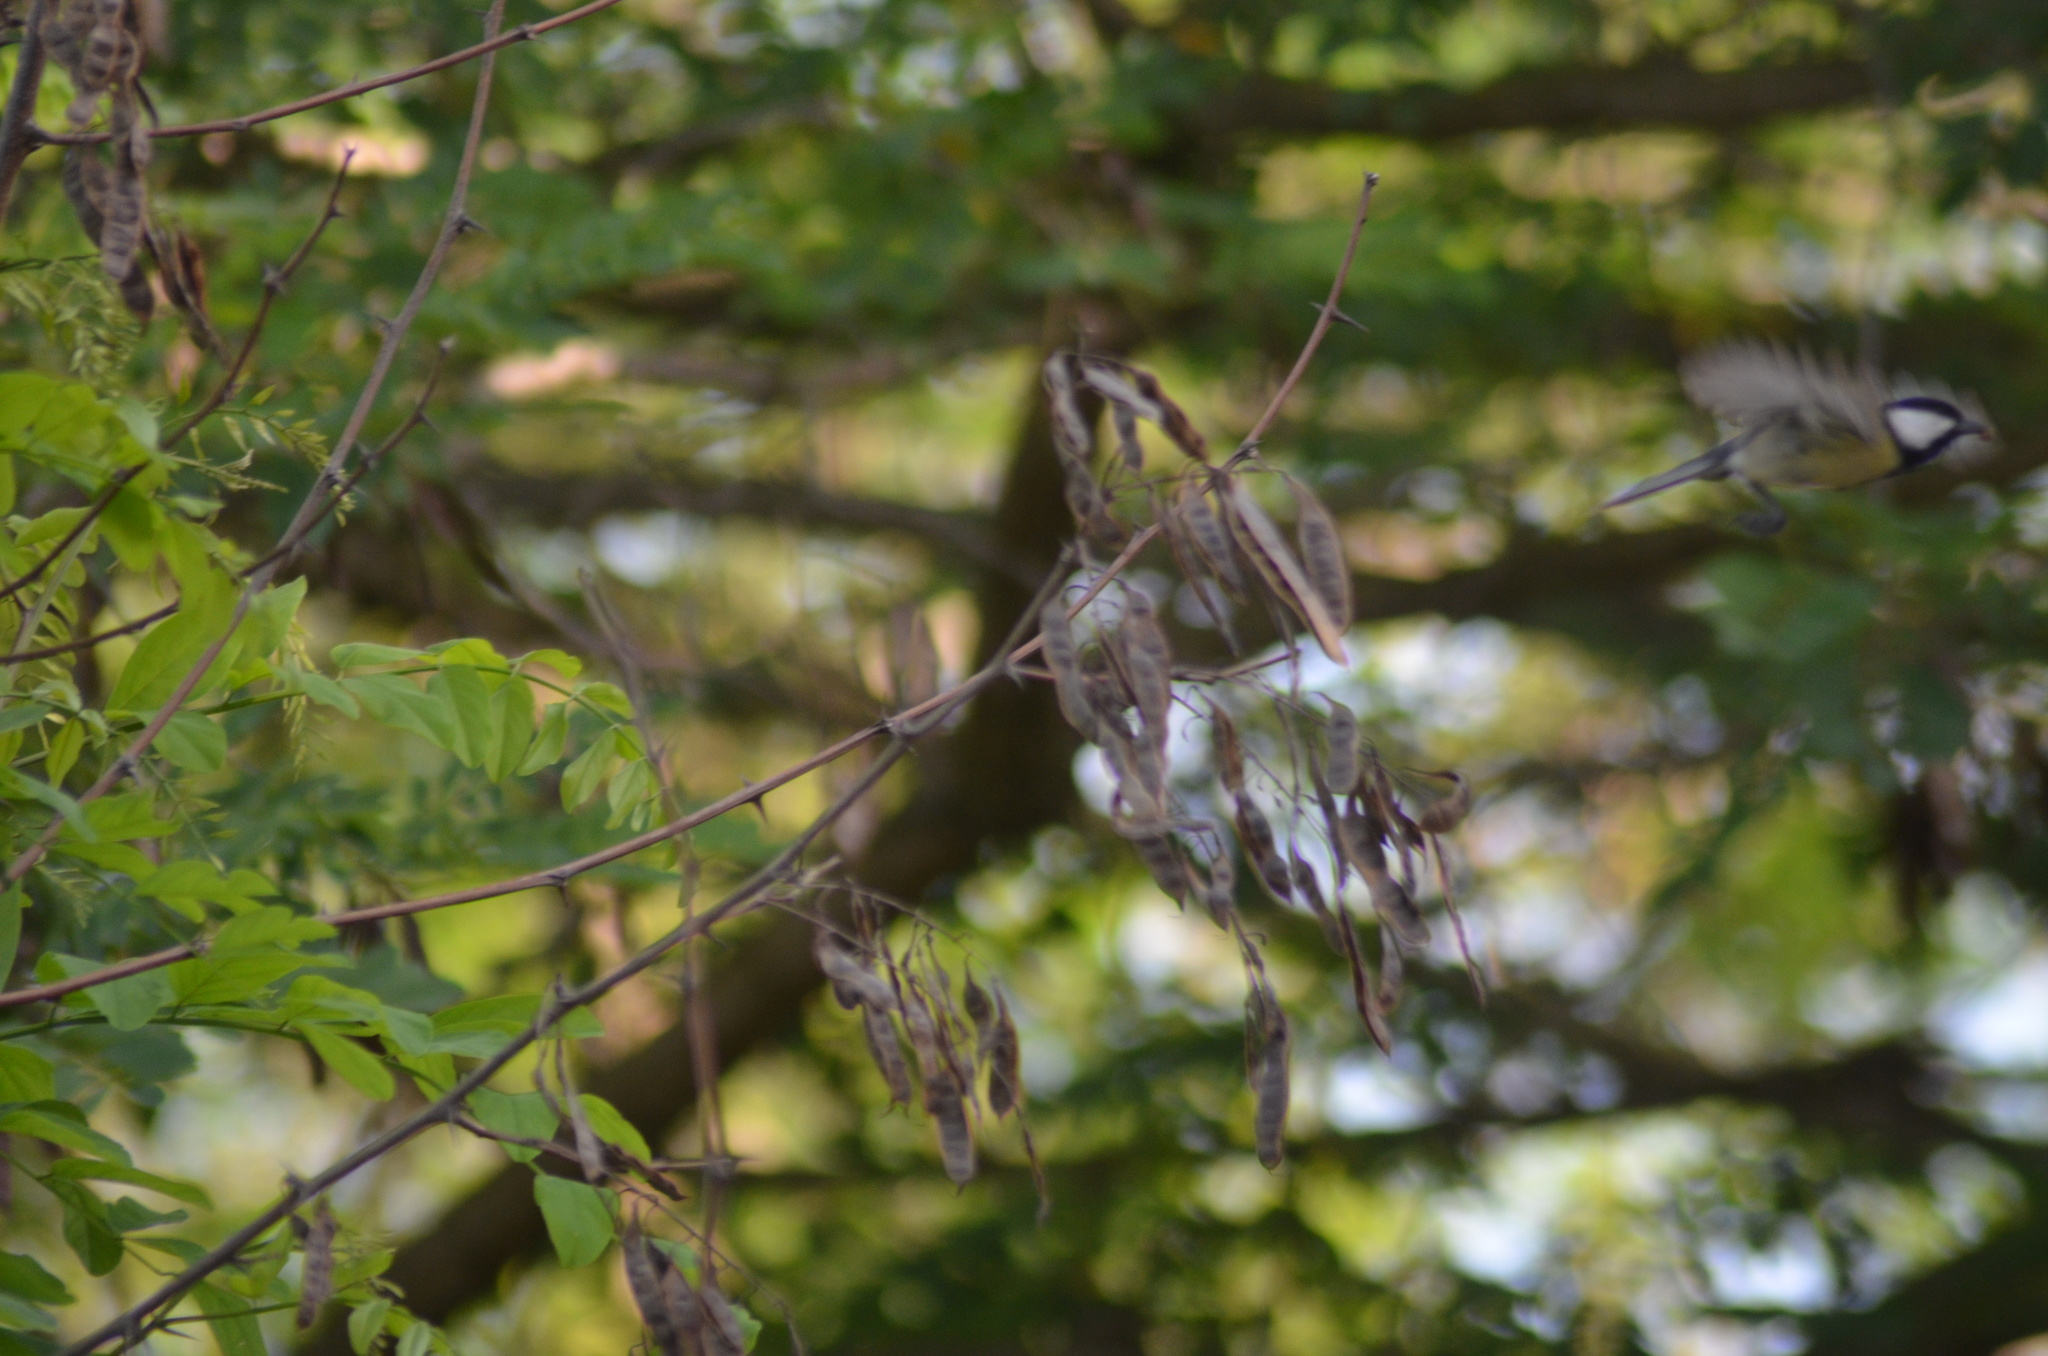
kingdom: Animalia
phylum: Chordata
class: Aves
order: Passeriformes
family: Paridae
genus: Parus
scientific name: Parus major
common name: Great tit
